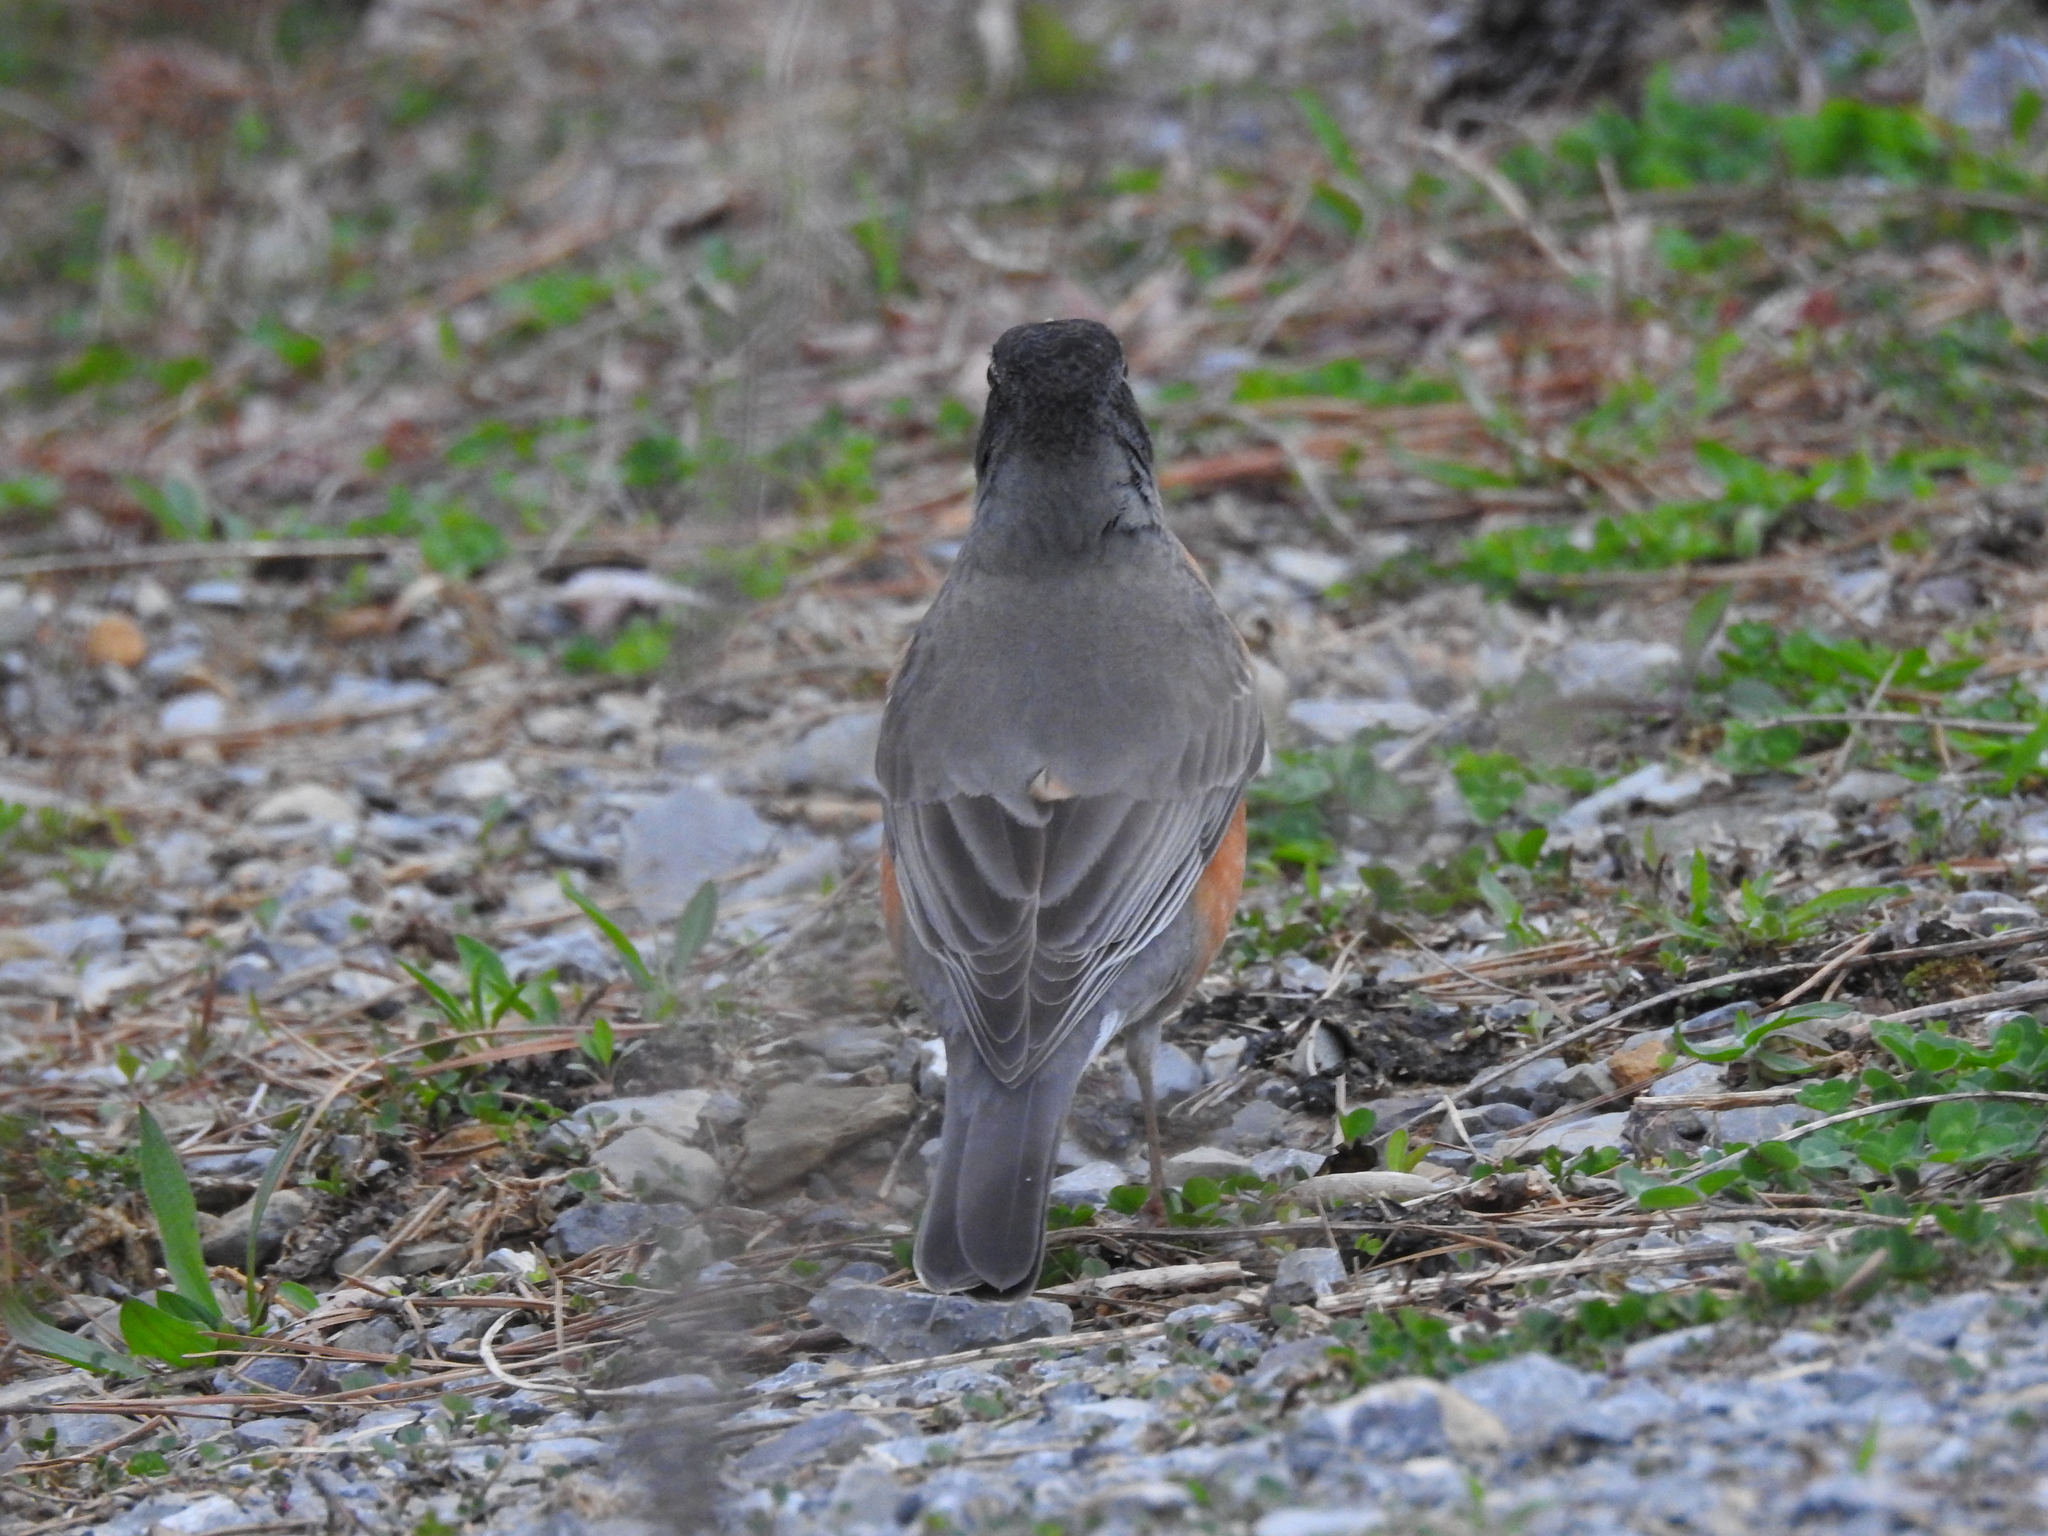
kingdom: Animalia
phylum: Chordata
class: Aves
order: Passeriformes
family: Turdidae
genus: Turdus
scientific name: Turdus migratorius
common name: American robin
